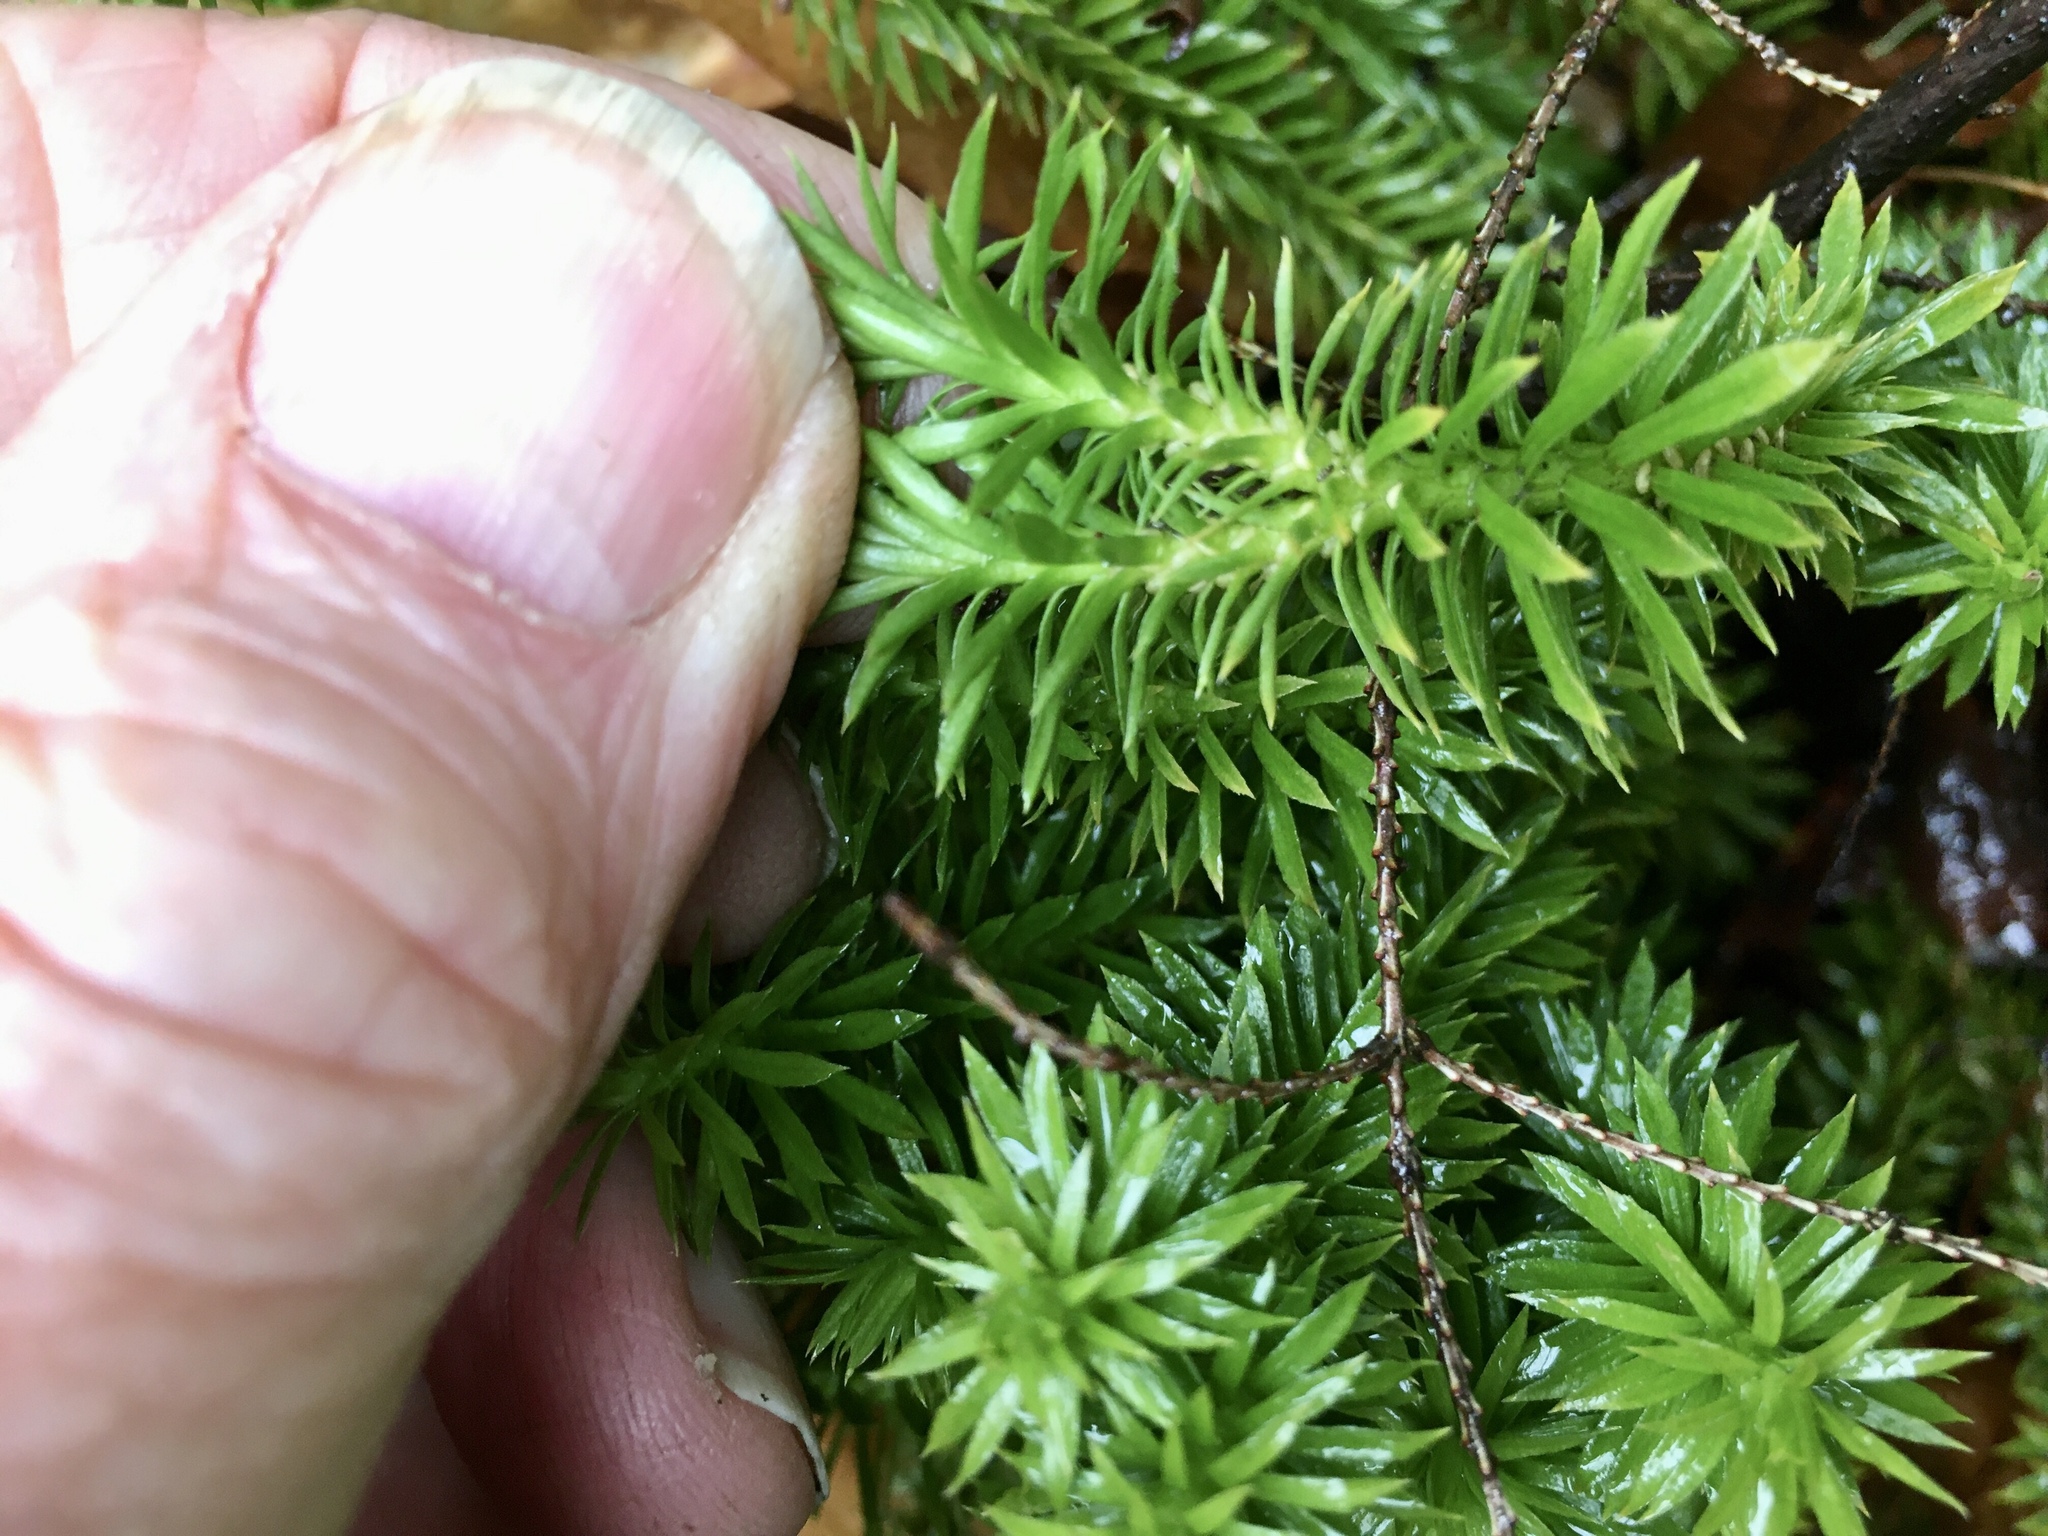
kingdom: Plantae
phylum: Tracheophyta
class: Lycopodiopsida
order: Lycopodiales
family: Lycopodiaceae
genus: Huperzia
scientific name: Huperzia lucidula
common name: Shining clubmoss
